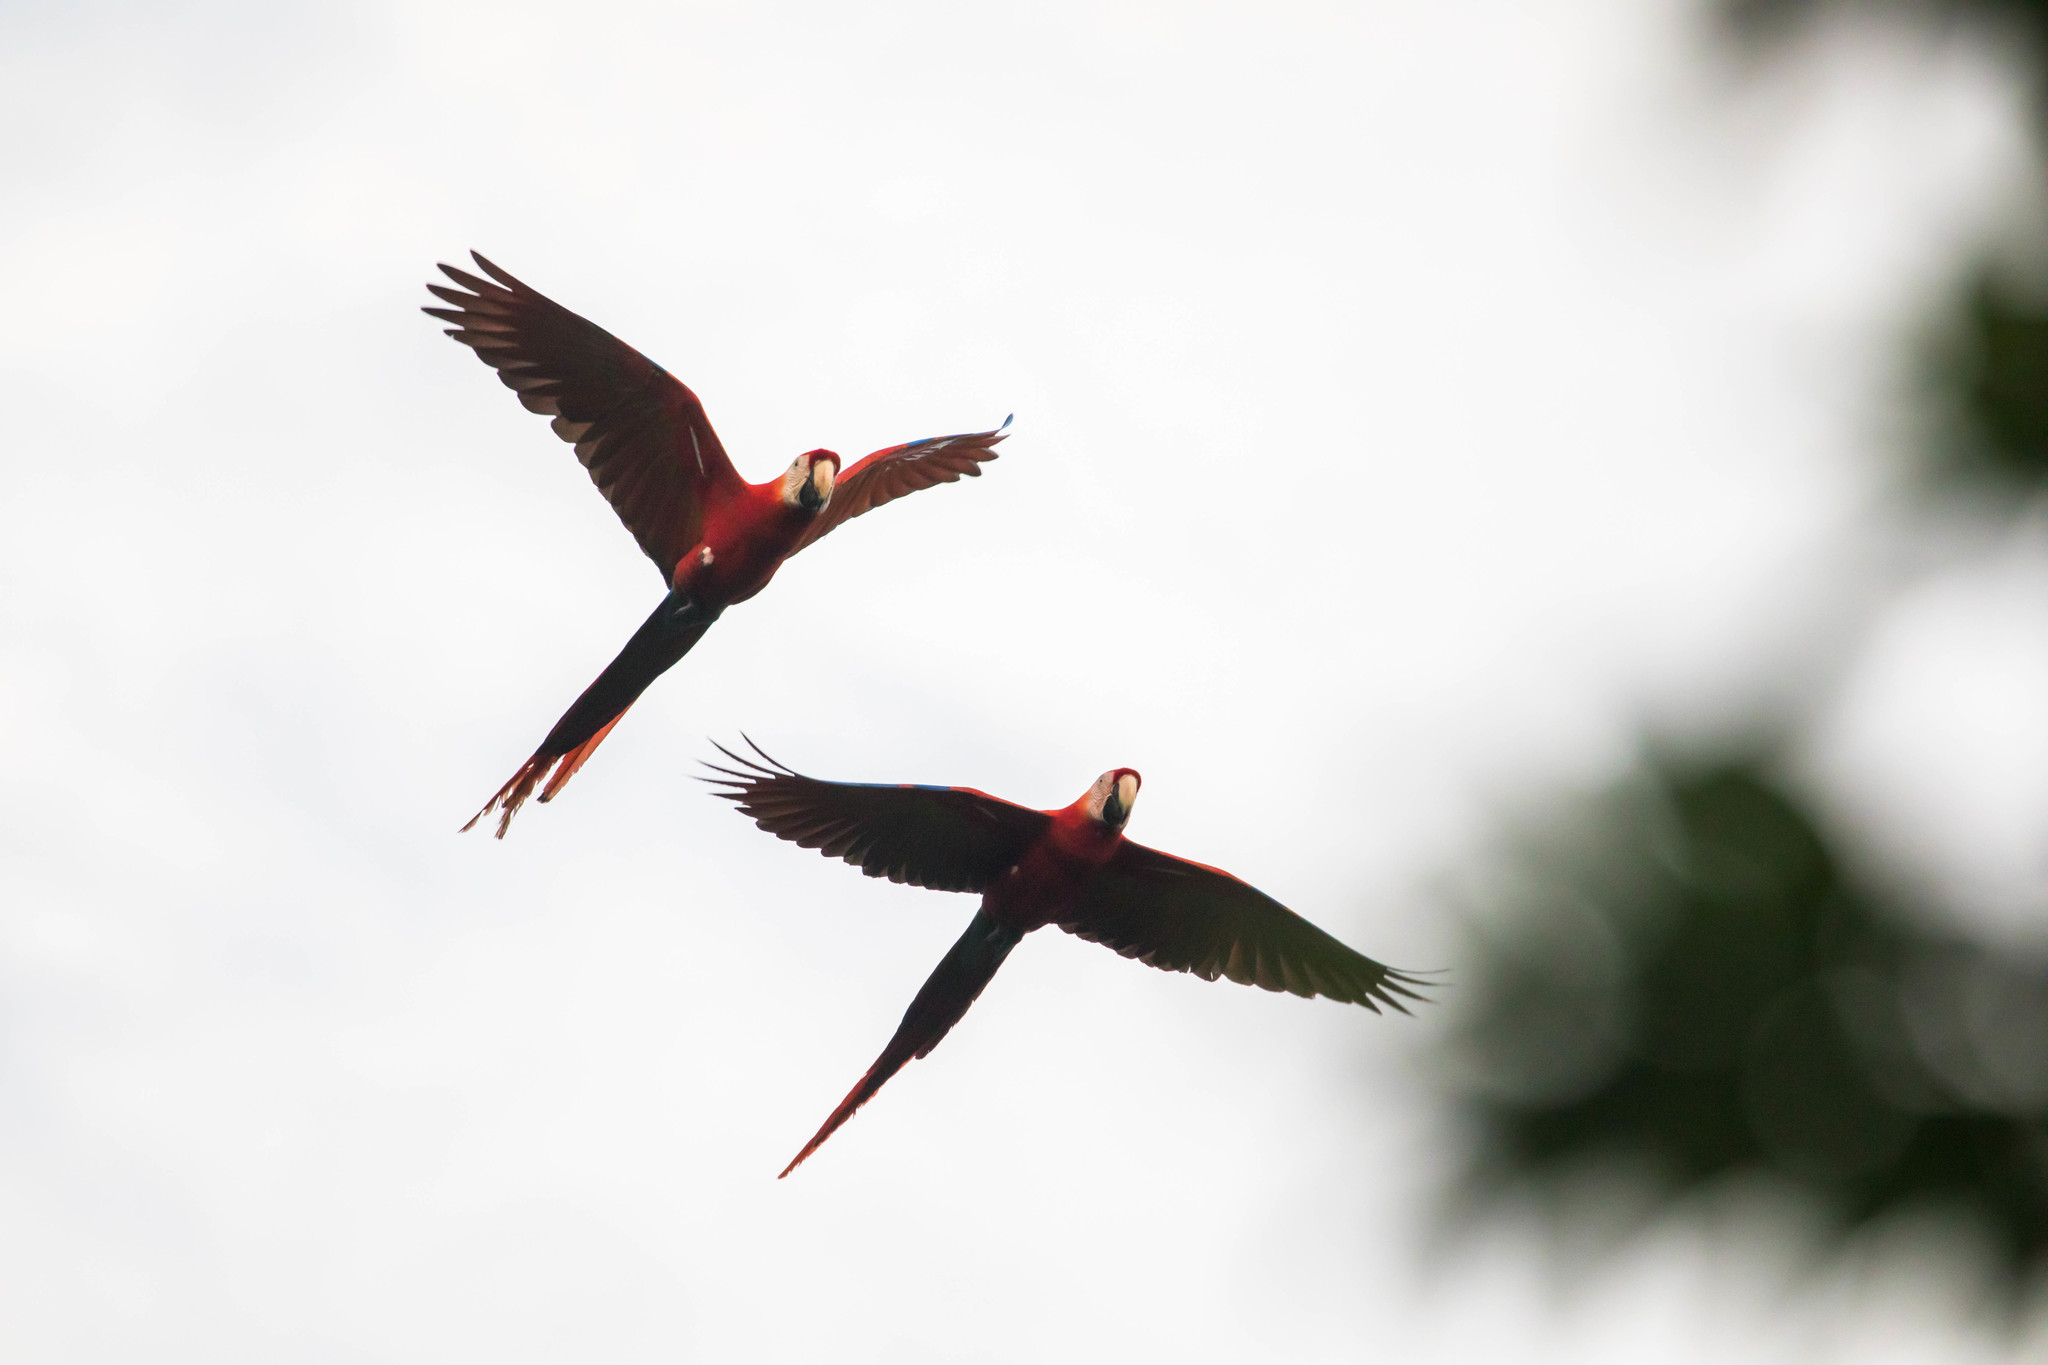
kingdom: Animalia
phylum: Chordata
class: Aves
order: Psittaciformes
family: Psittacidae
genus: Ara
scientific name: Ara macao
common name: Scarlet macaw
